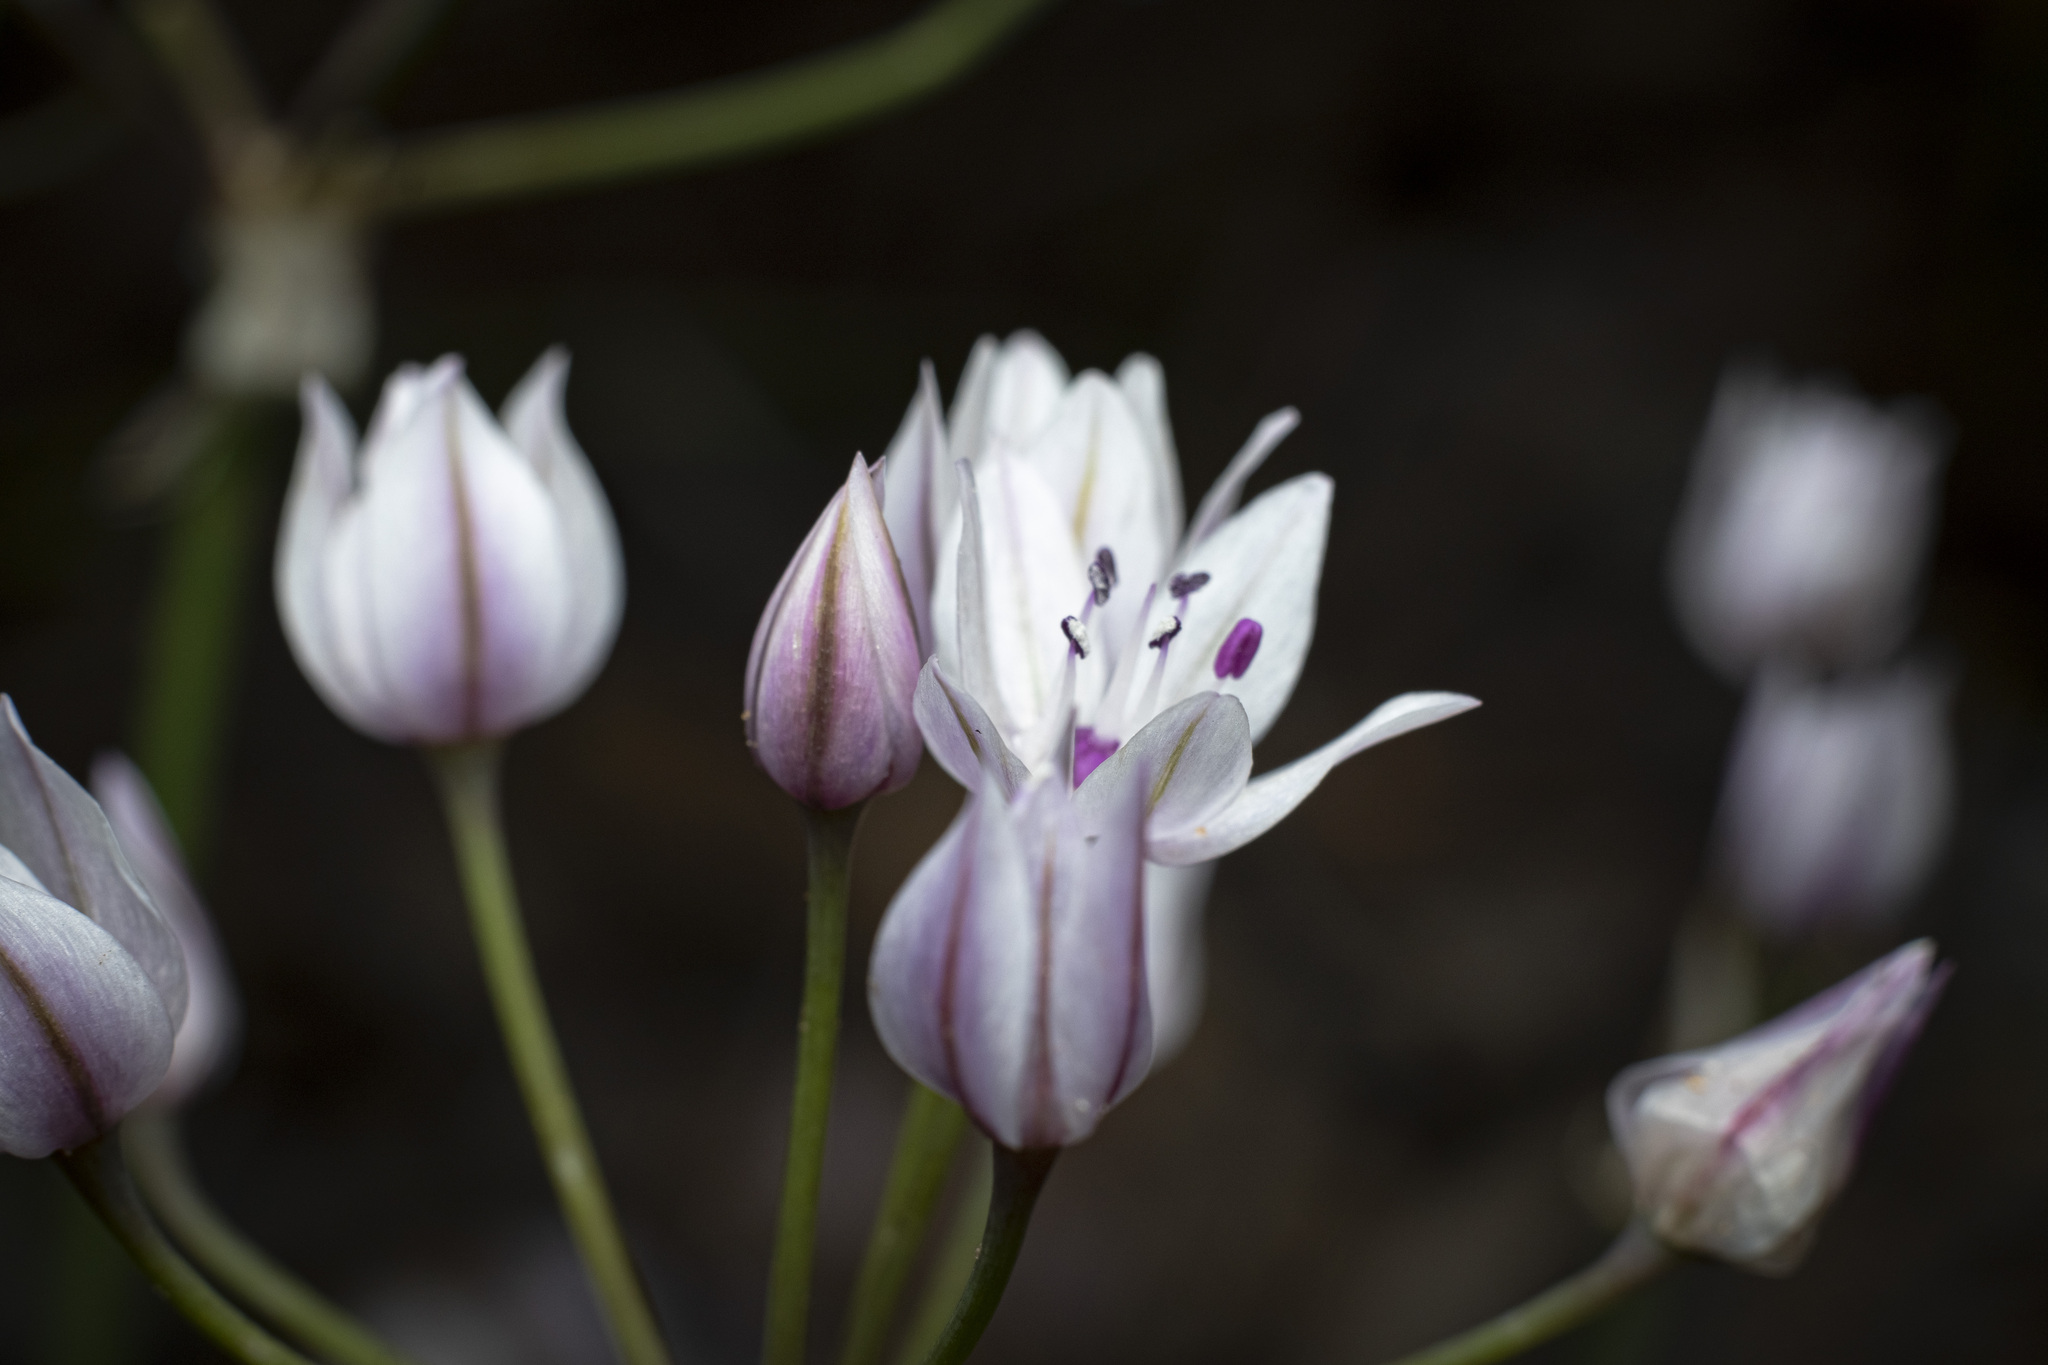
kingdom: Plantae
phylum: Tracheophyta
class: Liliopsida
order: Asparagales
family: Amaryllidaceae
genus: Allium
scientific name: Allium praecox
